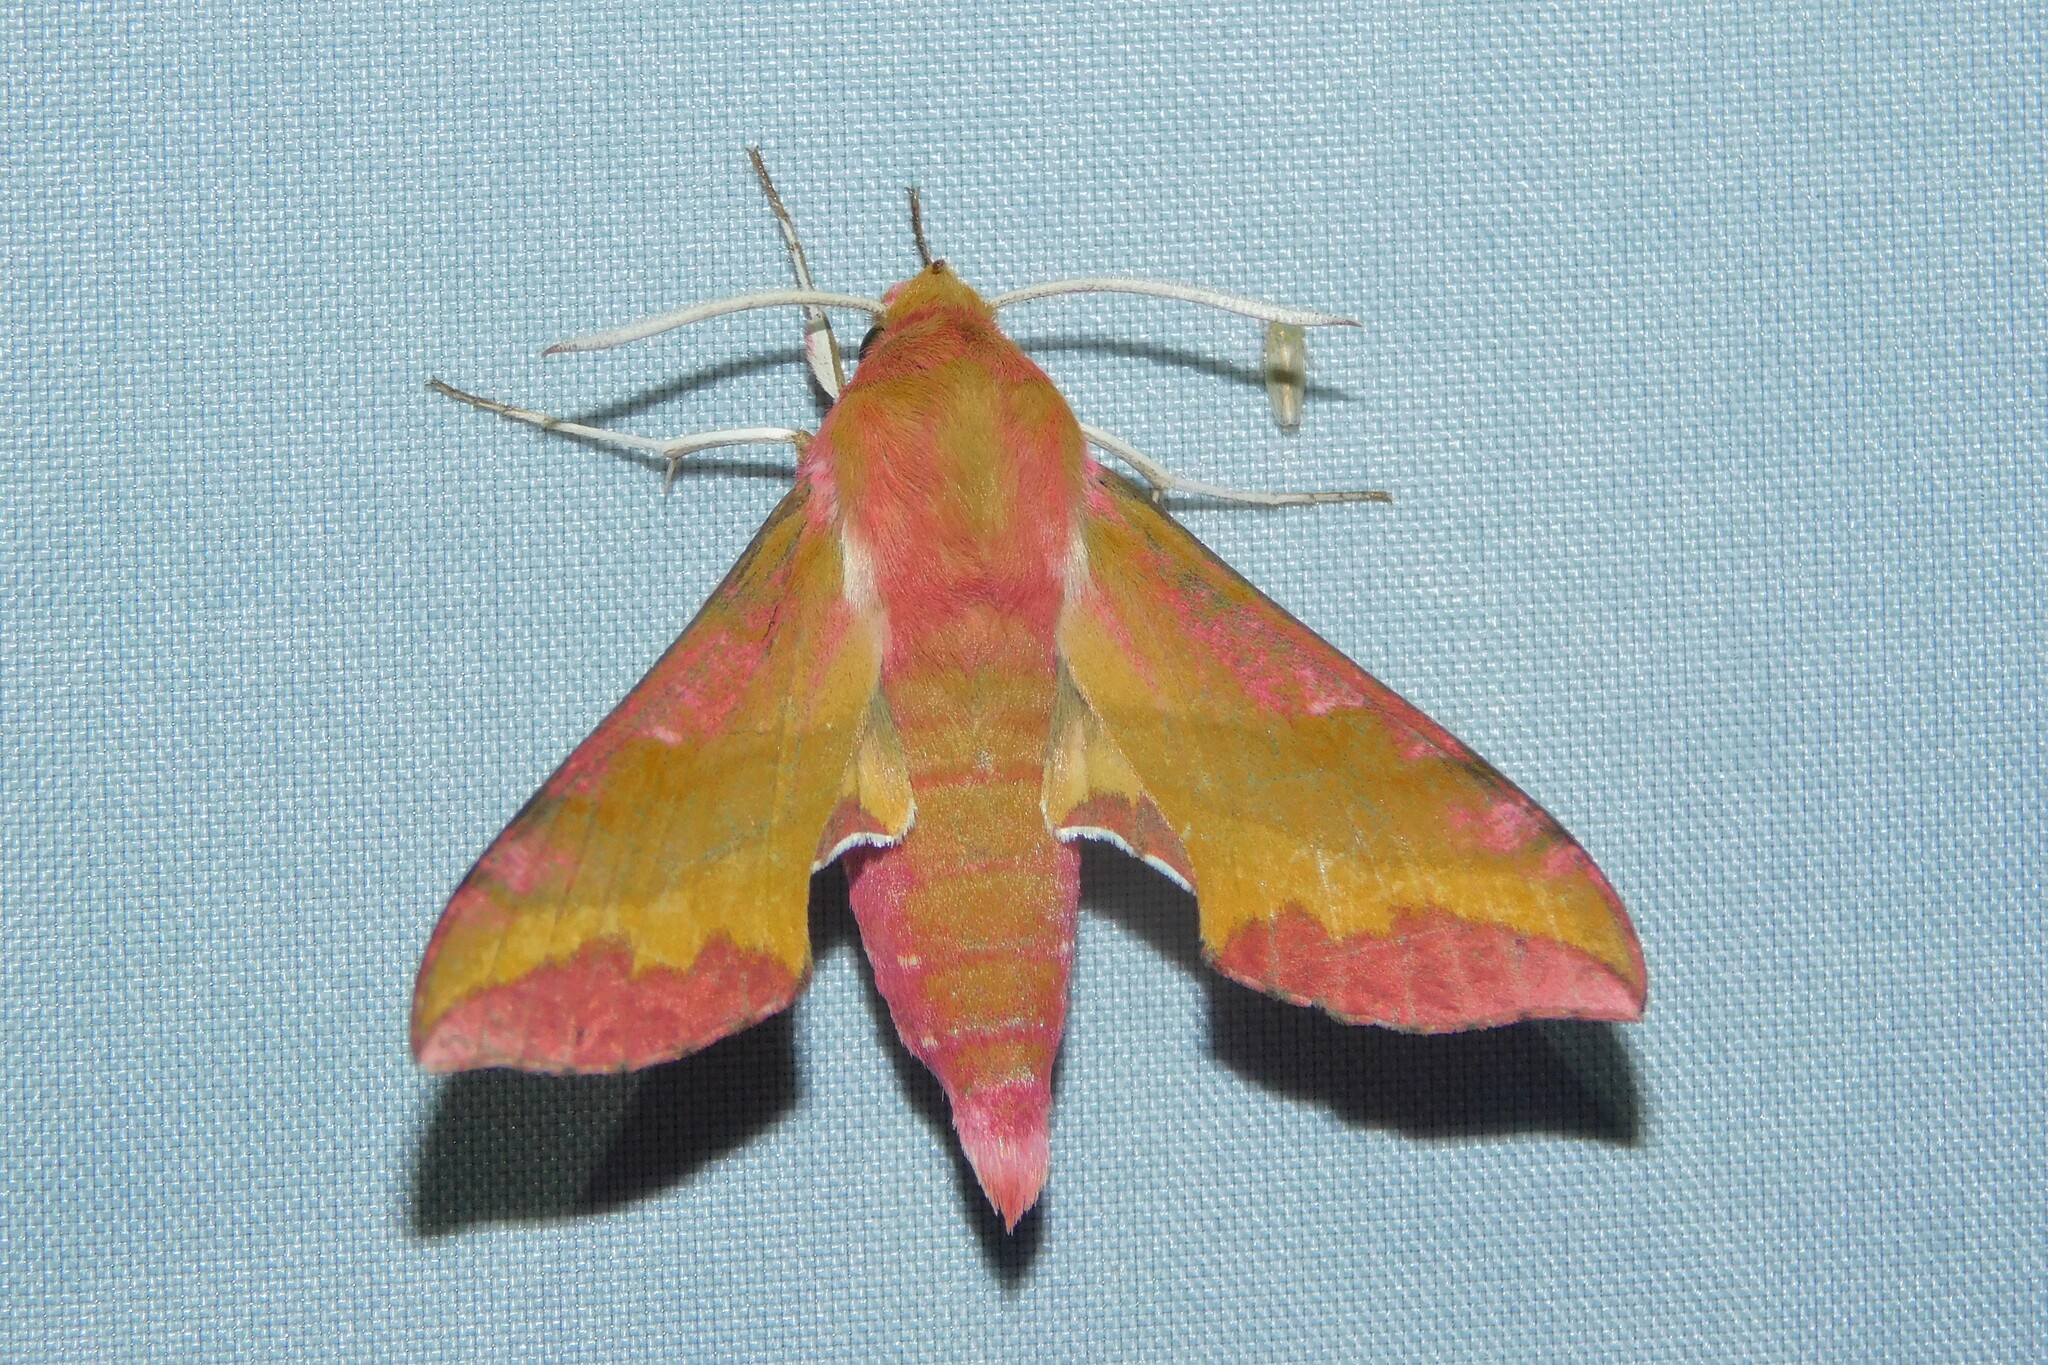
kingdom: Animalia
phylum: Arthropoda
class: Insecta
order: Lepidoptera
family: Sphingidae
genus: Deilephila
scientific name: Deilephila porcellus
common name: Small elephant hawk-moth
